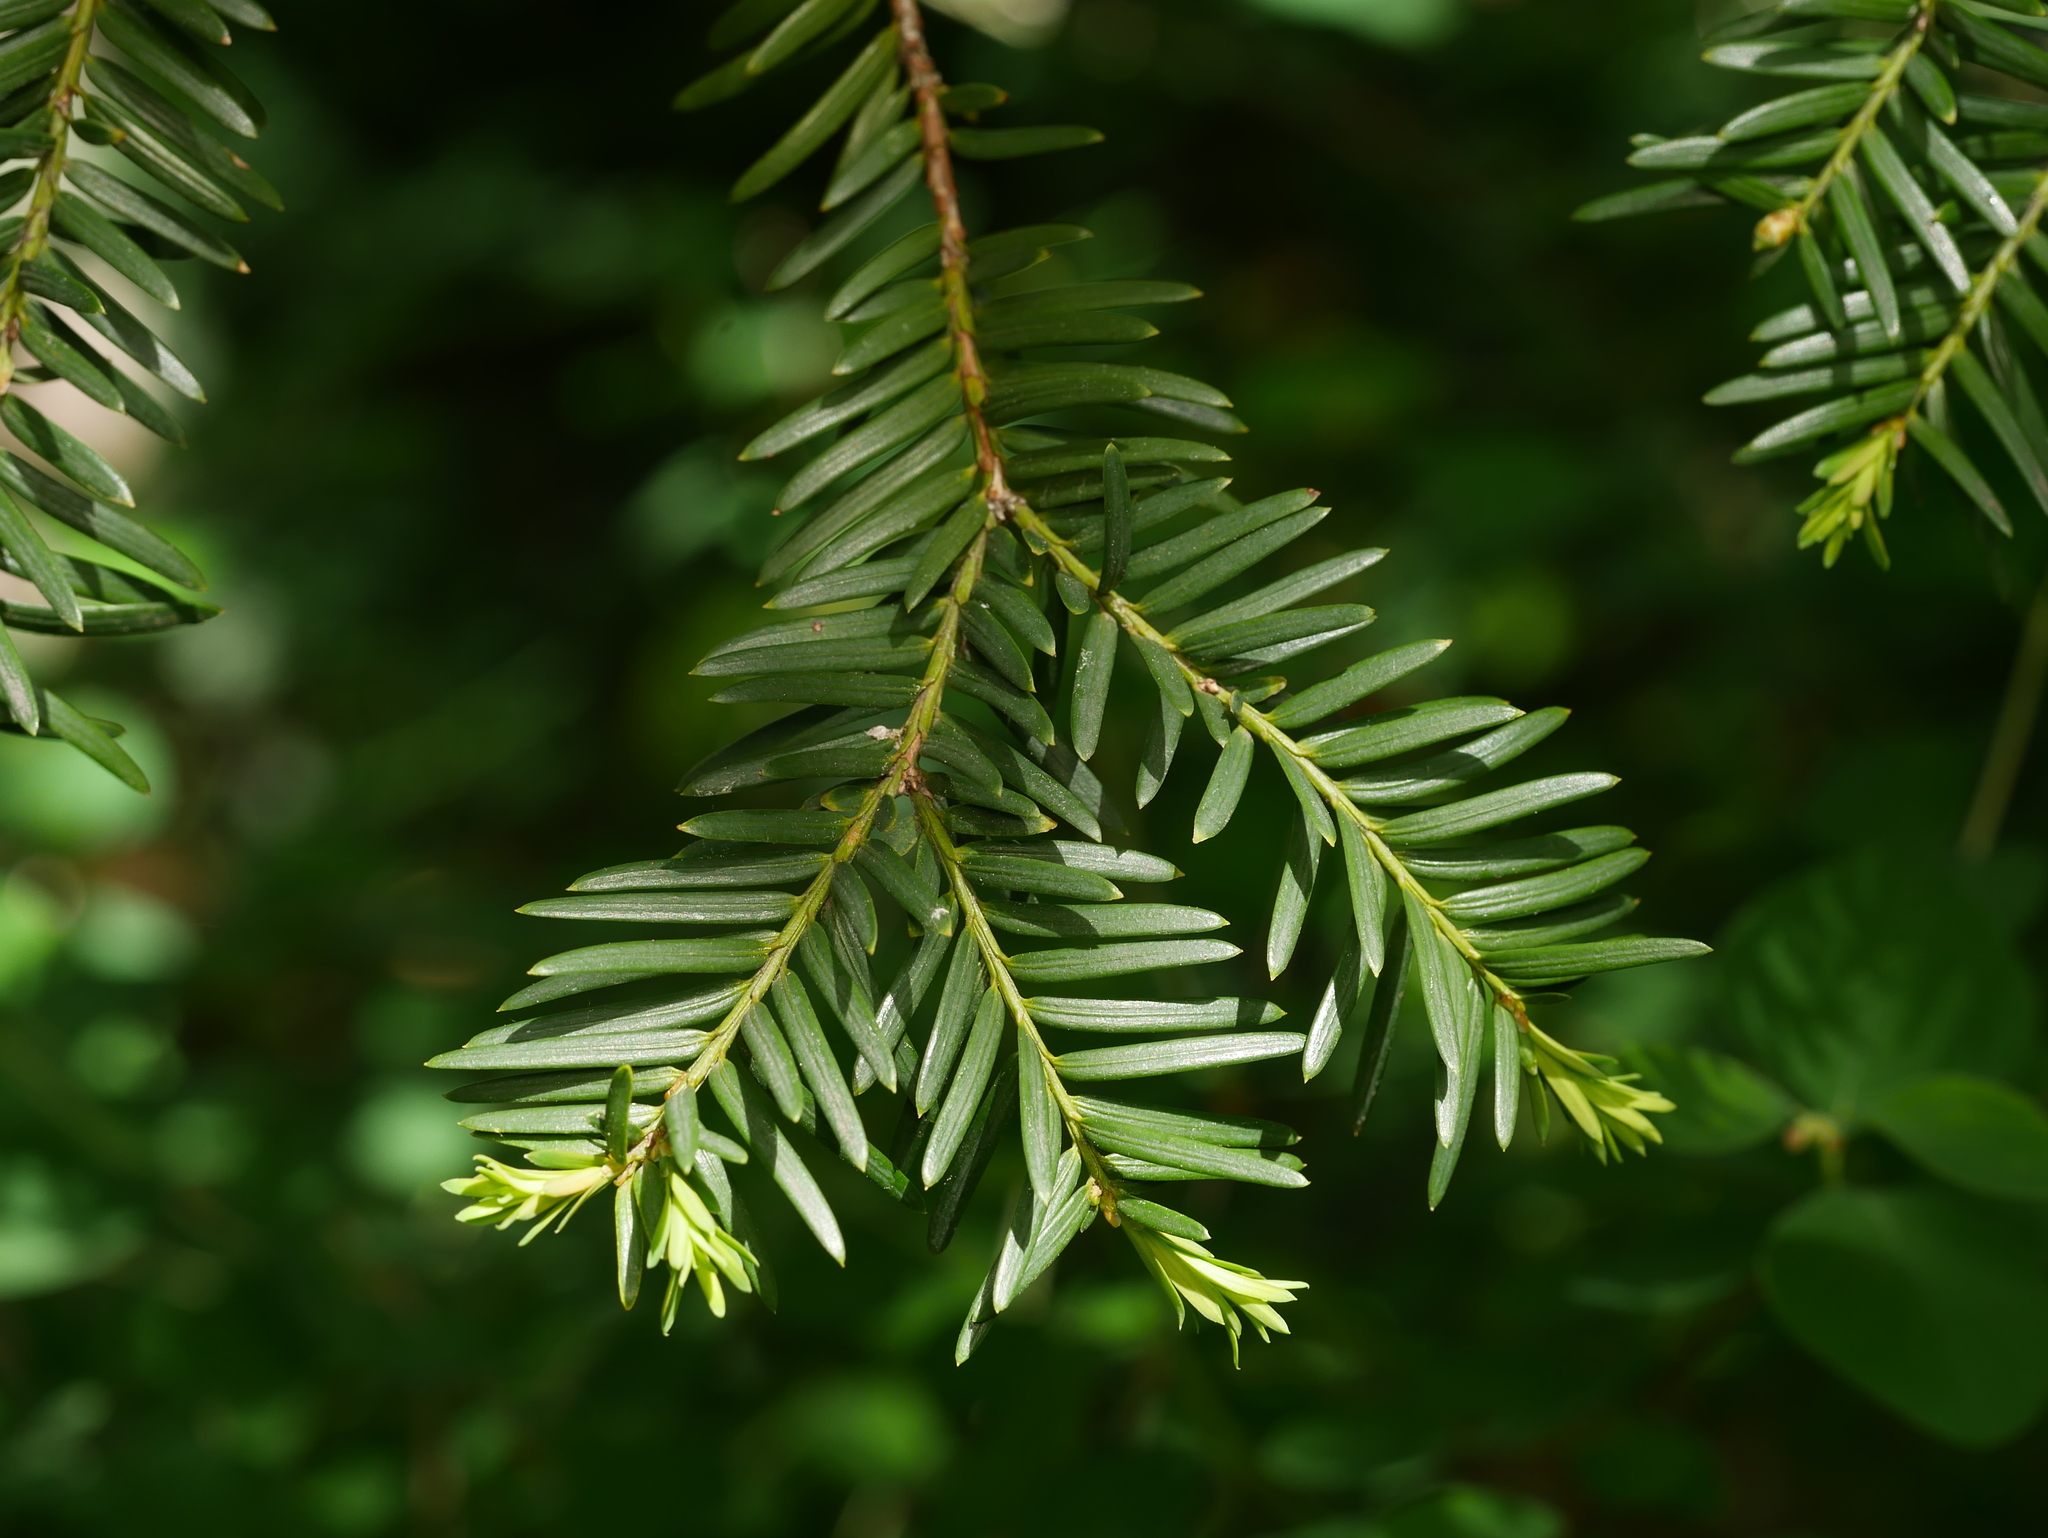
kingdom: Plantae
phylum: Tracheophyta
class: Pinopsida
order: Pinales
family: Taxaceae
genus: Taxus
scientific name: Taxus baccata
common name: Yew
